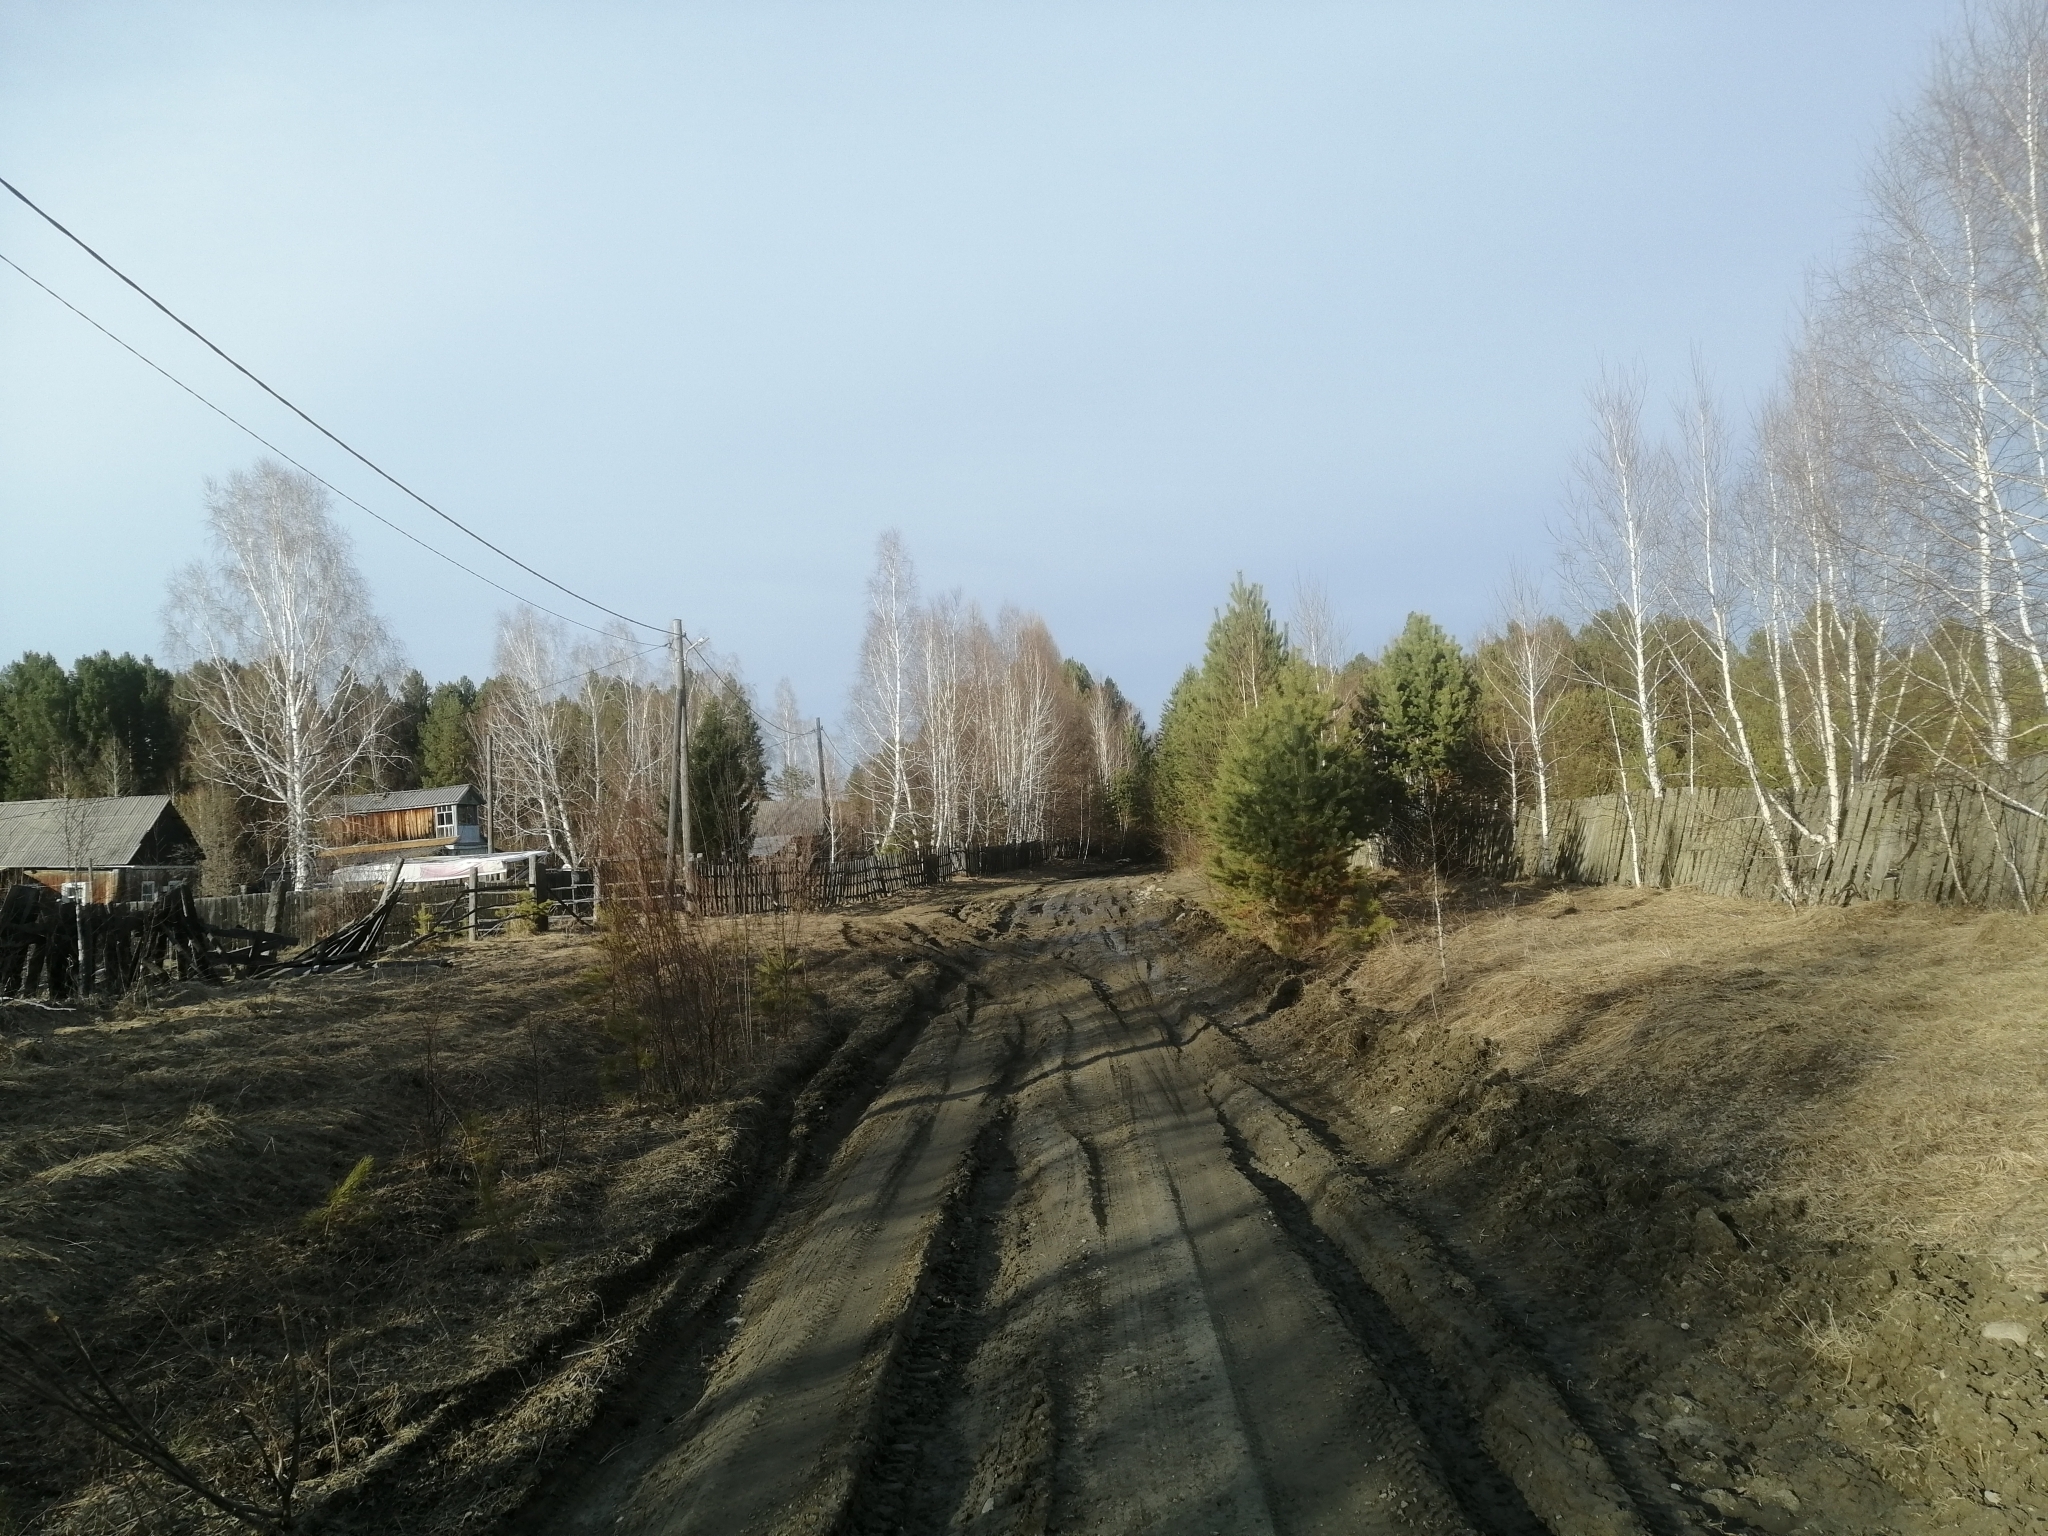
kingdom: Plantae
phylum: Tracheophyta
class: Pinopsida
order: Pinales
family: Pinaceae
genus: Pinus
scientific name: Pinus sylvestris
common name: Scots pine
